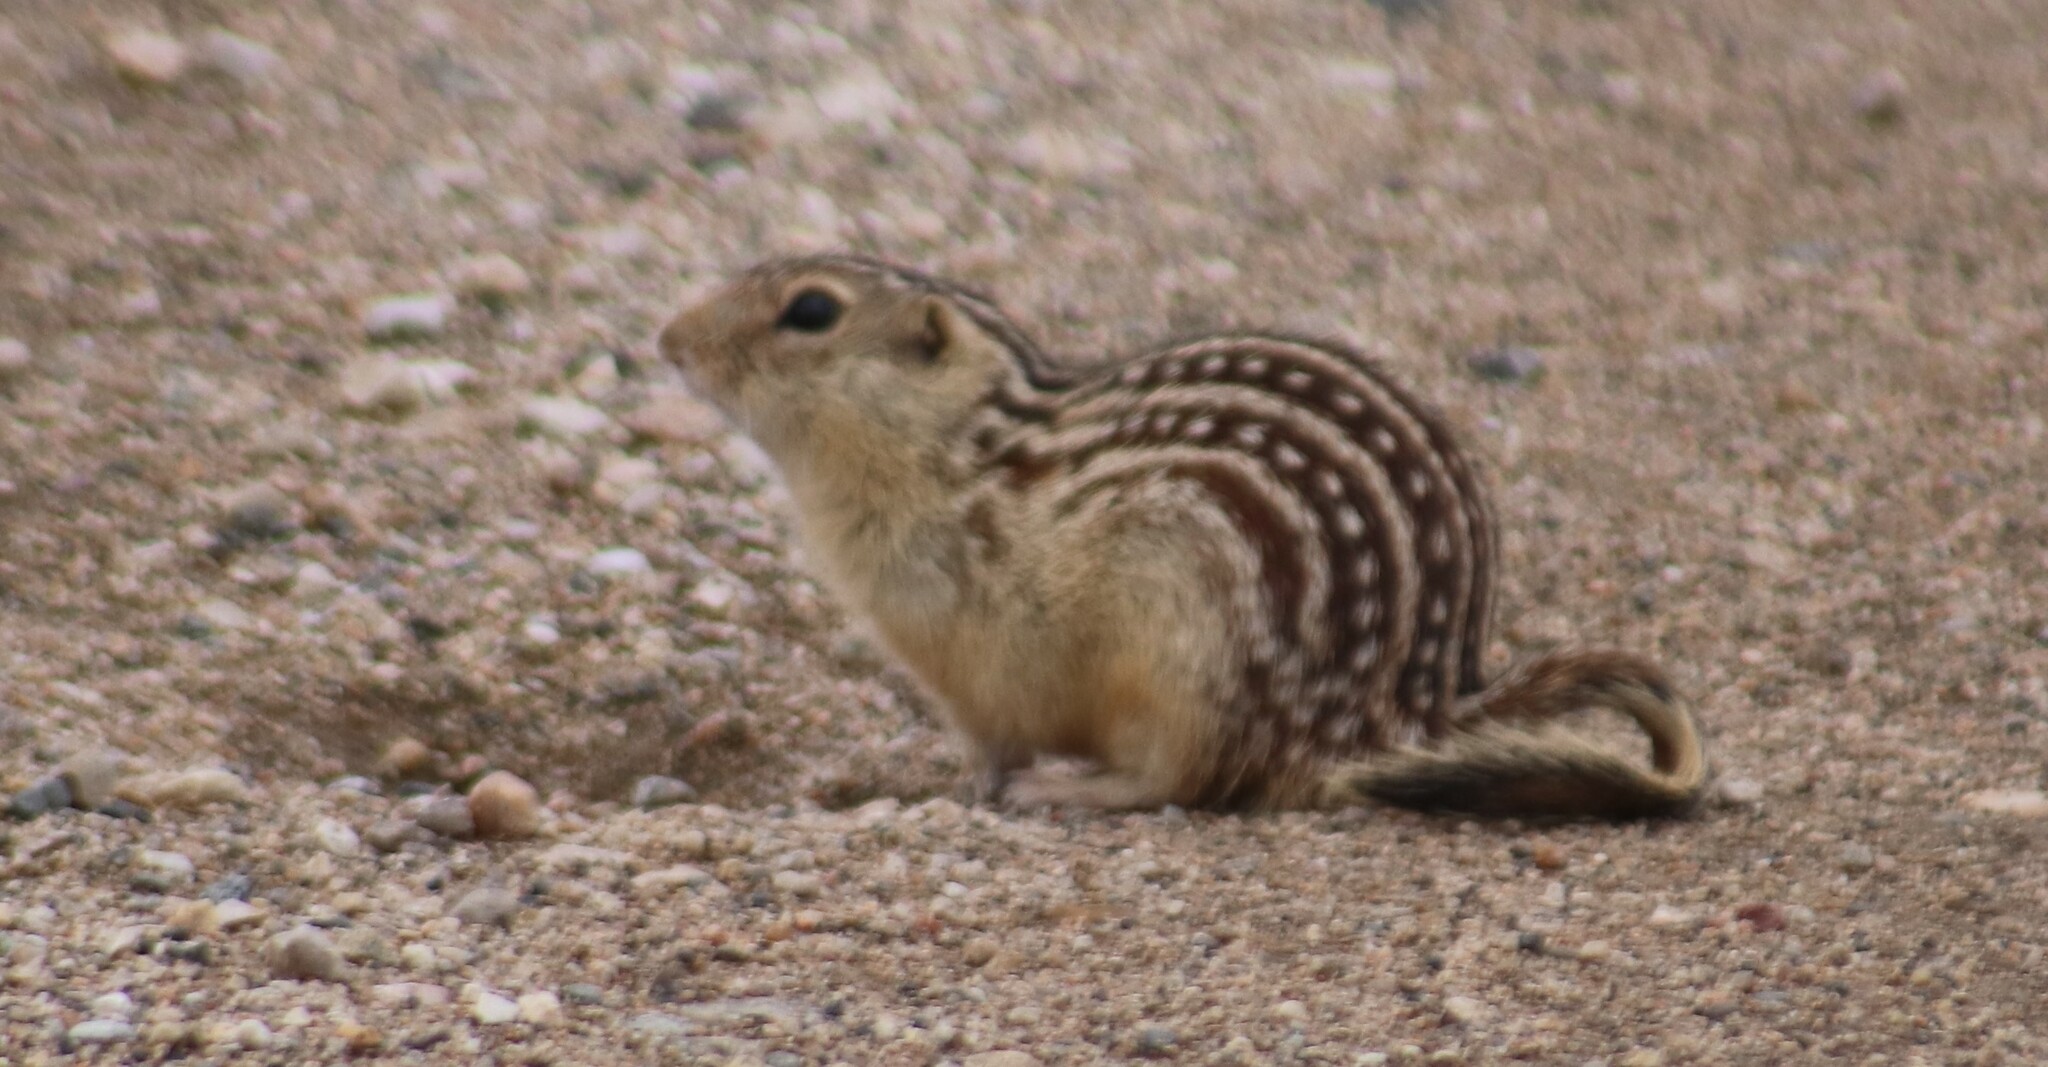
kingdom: Animalia
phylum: Chordata
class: Mammalia
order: Rodentia
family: Sciuridae
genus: Ictidomys
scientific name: Ictidomys tridecemlineatus
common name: Thirteen-lined ground squirrel
